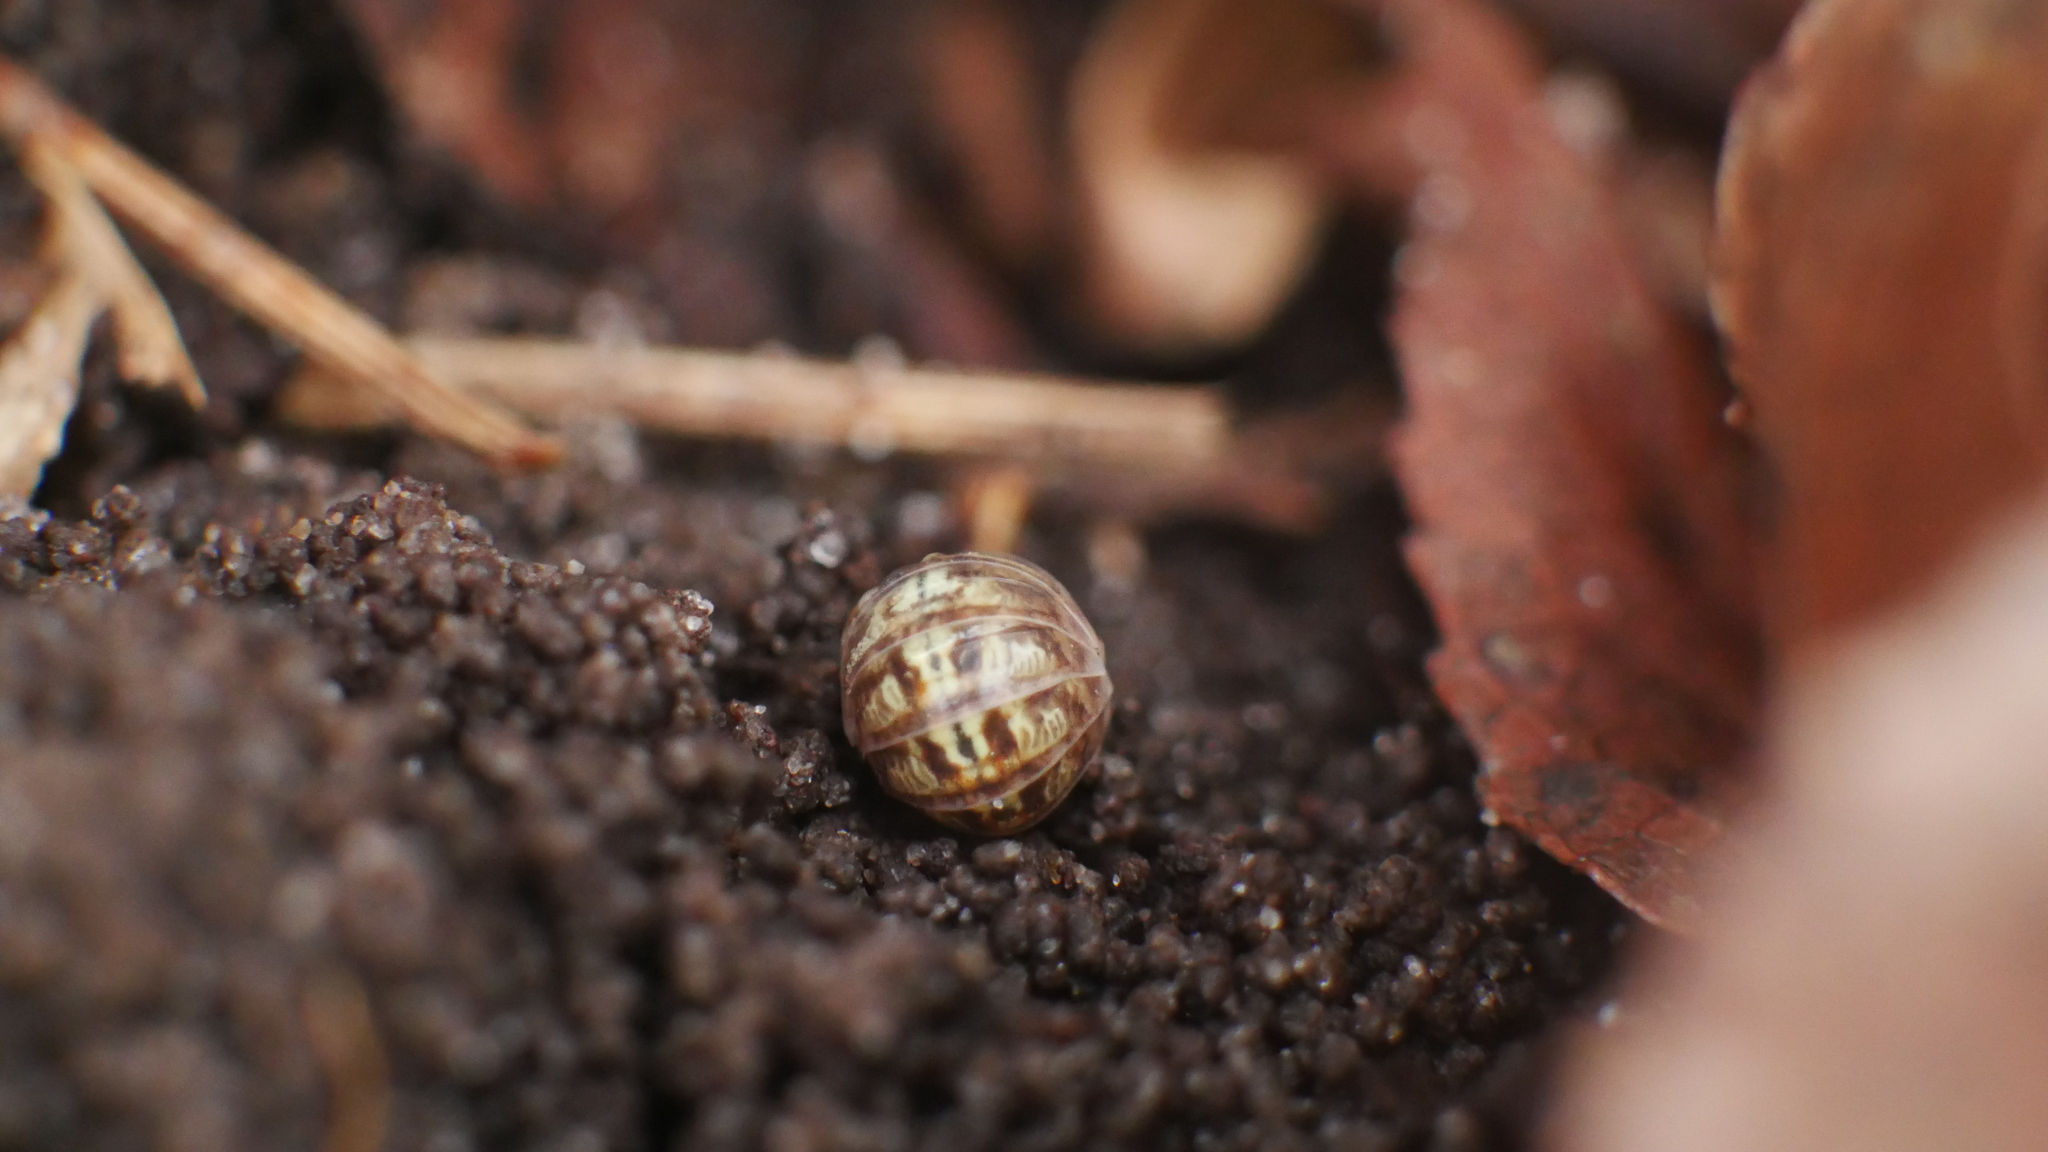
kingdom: Animalia
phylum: Arthropoda
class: Malacostraca
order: Isopoda
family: Armadillidiidae
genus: Armadillidium
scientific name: Armadillidium vulgare
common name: Common pill woodlouse
